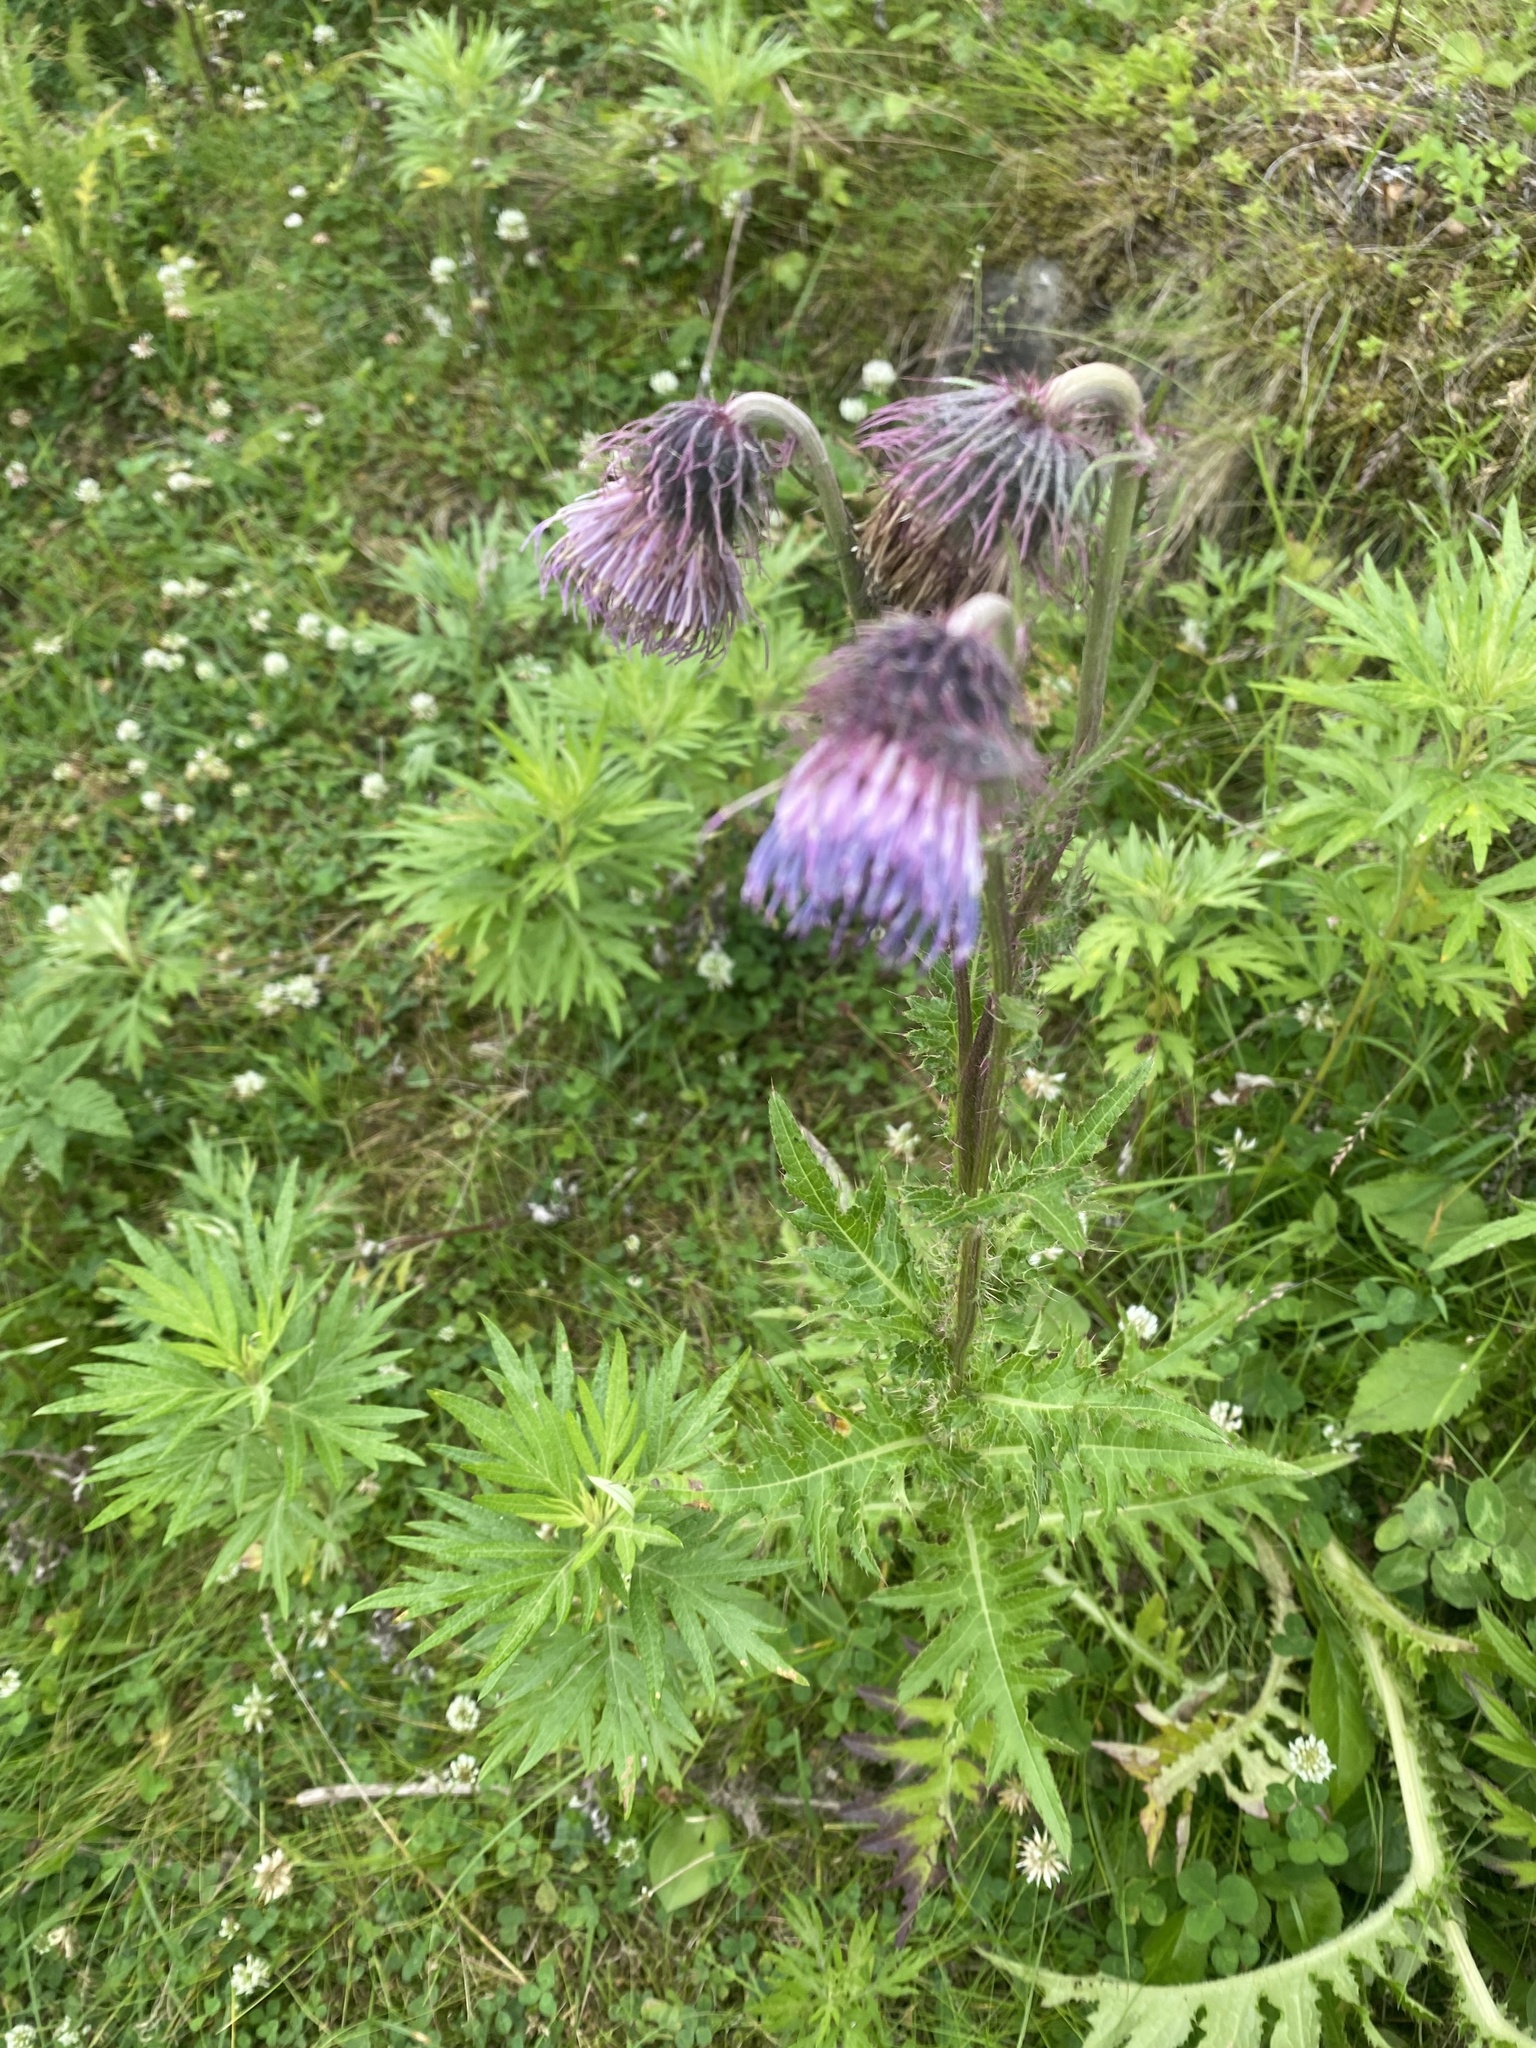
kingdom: Plantae
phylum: Tracheophyta
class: Magnoliopsida
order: Asterales
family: Asteraceae
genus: Cirsium
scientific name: Cirsium kamtschaticum
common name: Kamchatka thistle
